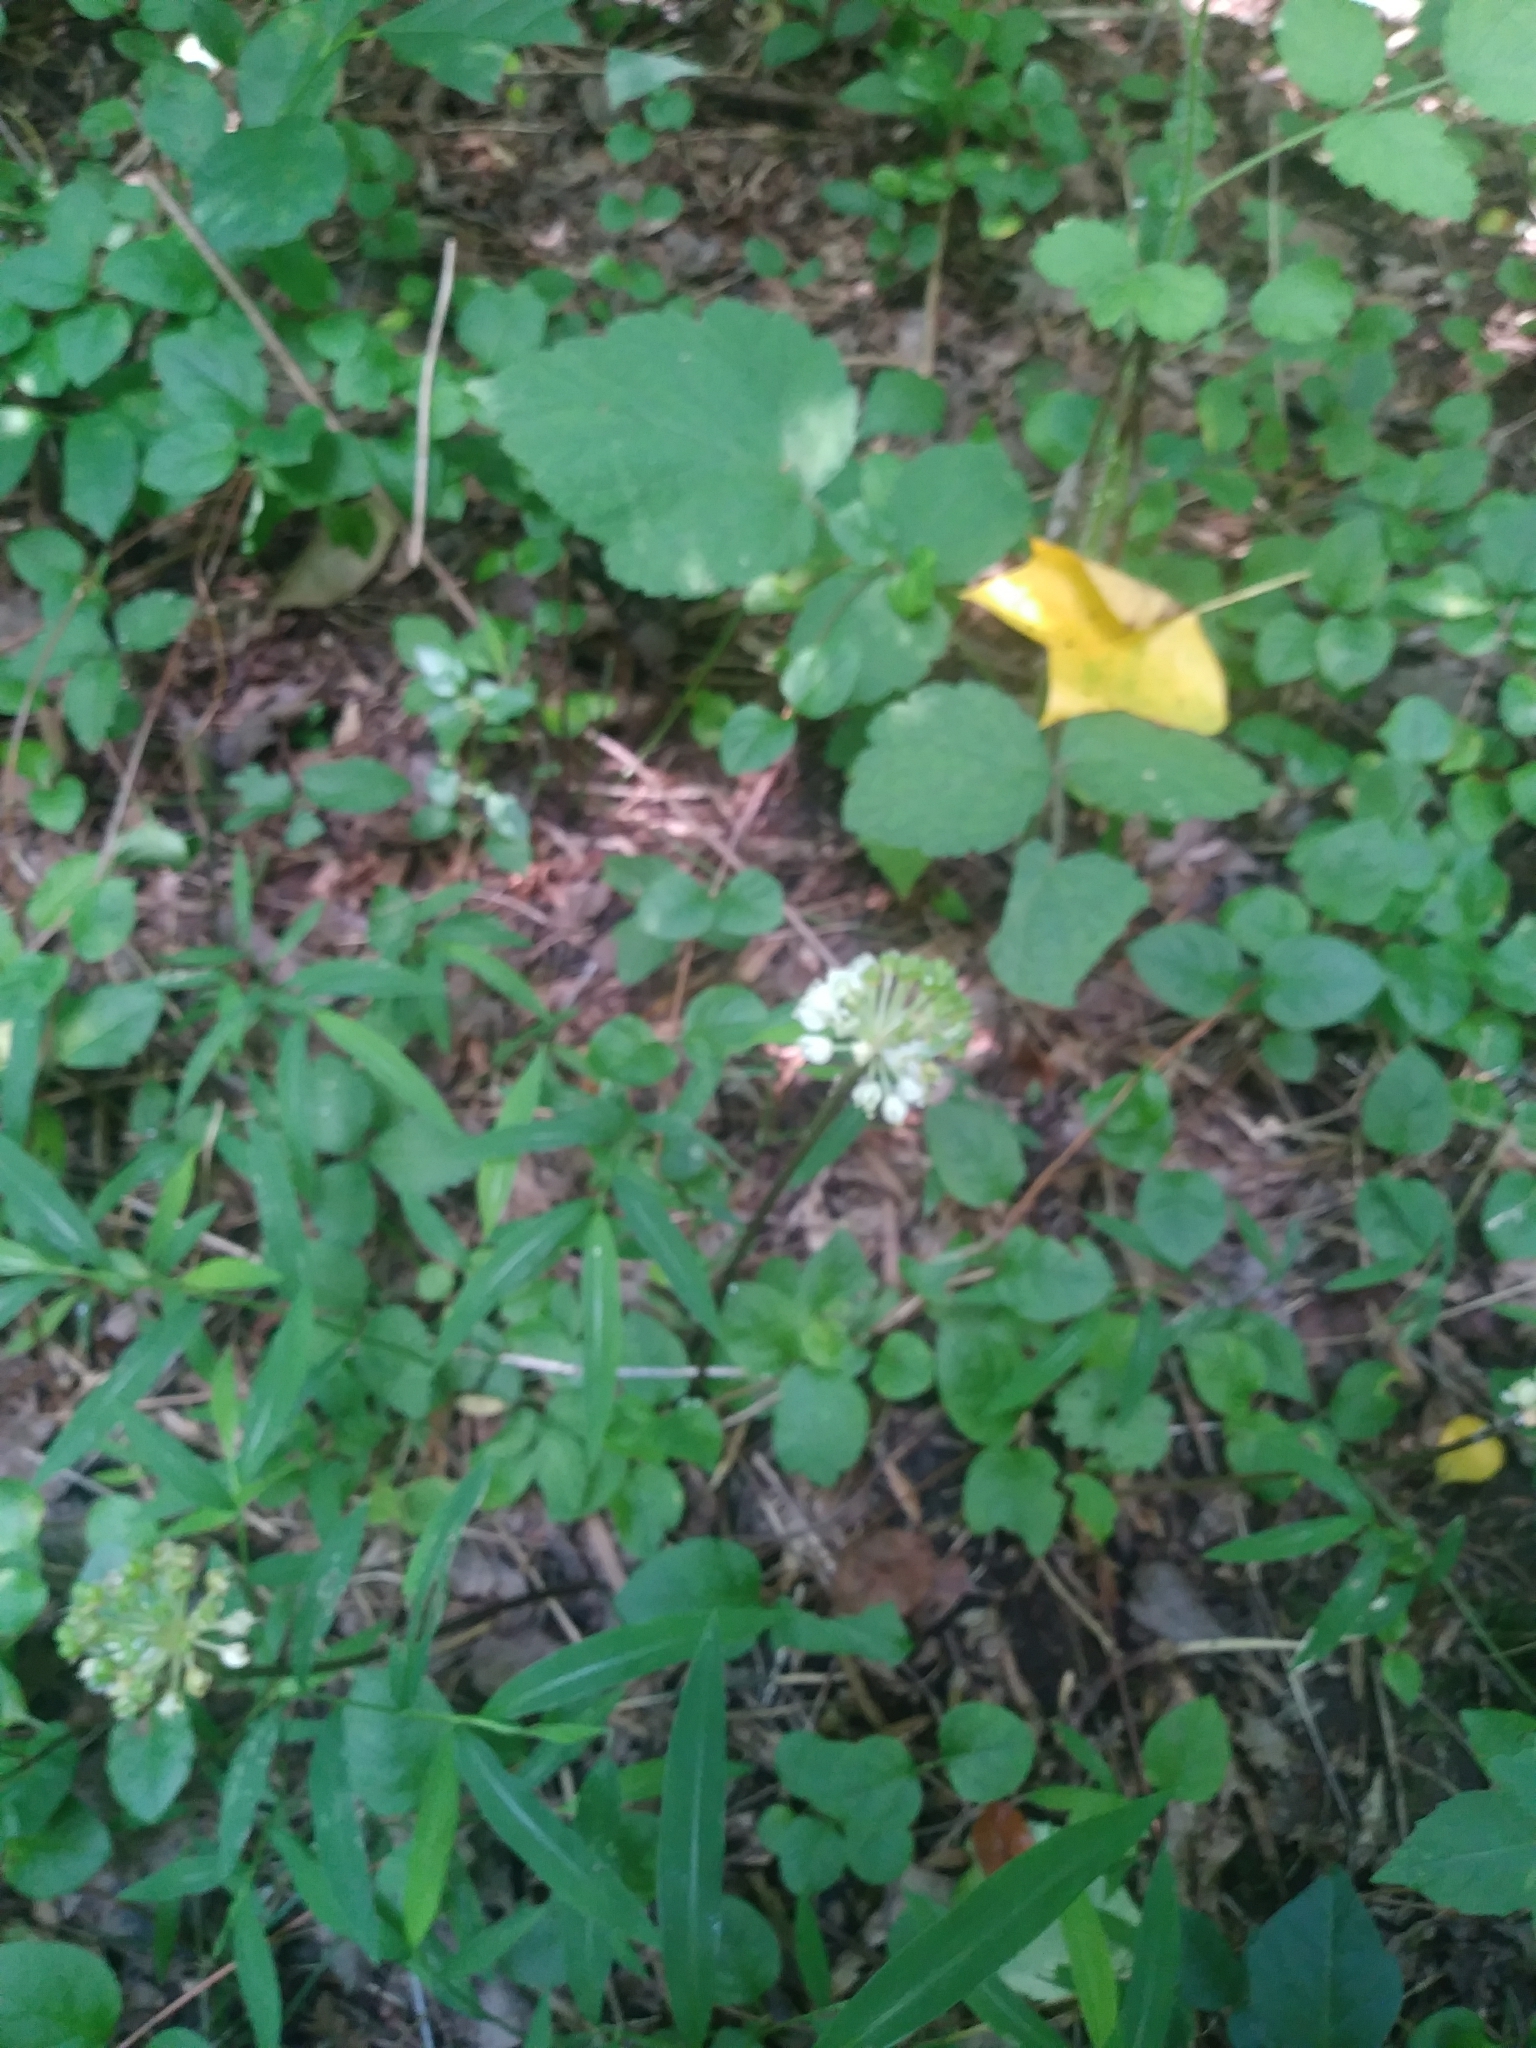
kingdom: Plantae
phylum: Tracheophyta
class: Liliopsida
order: Asparagales
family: Amaryllidaceae
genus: Allium
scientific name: Allium tricoccum
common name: Ramp
